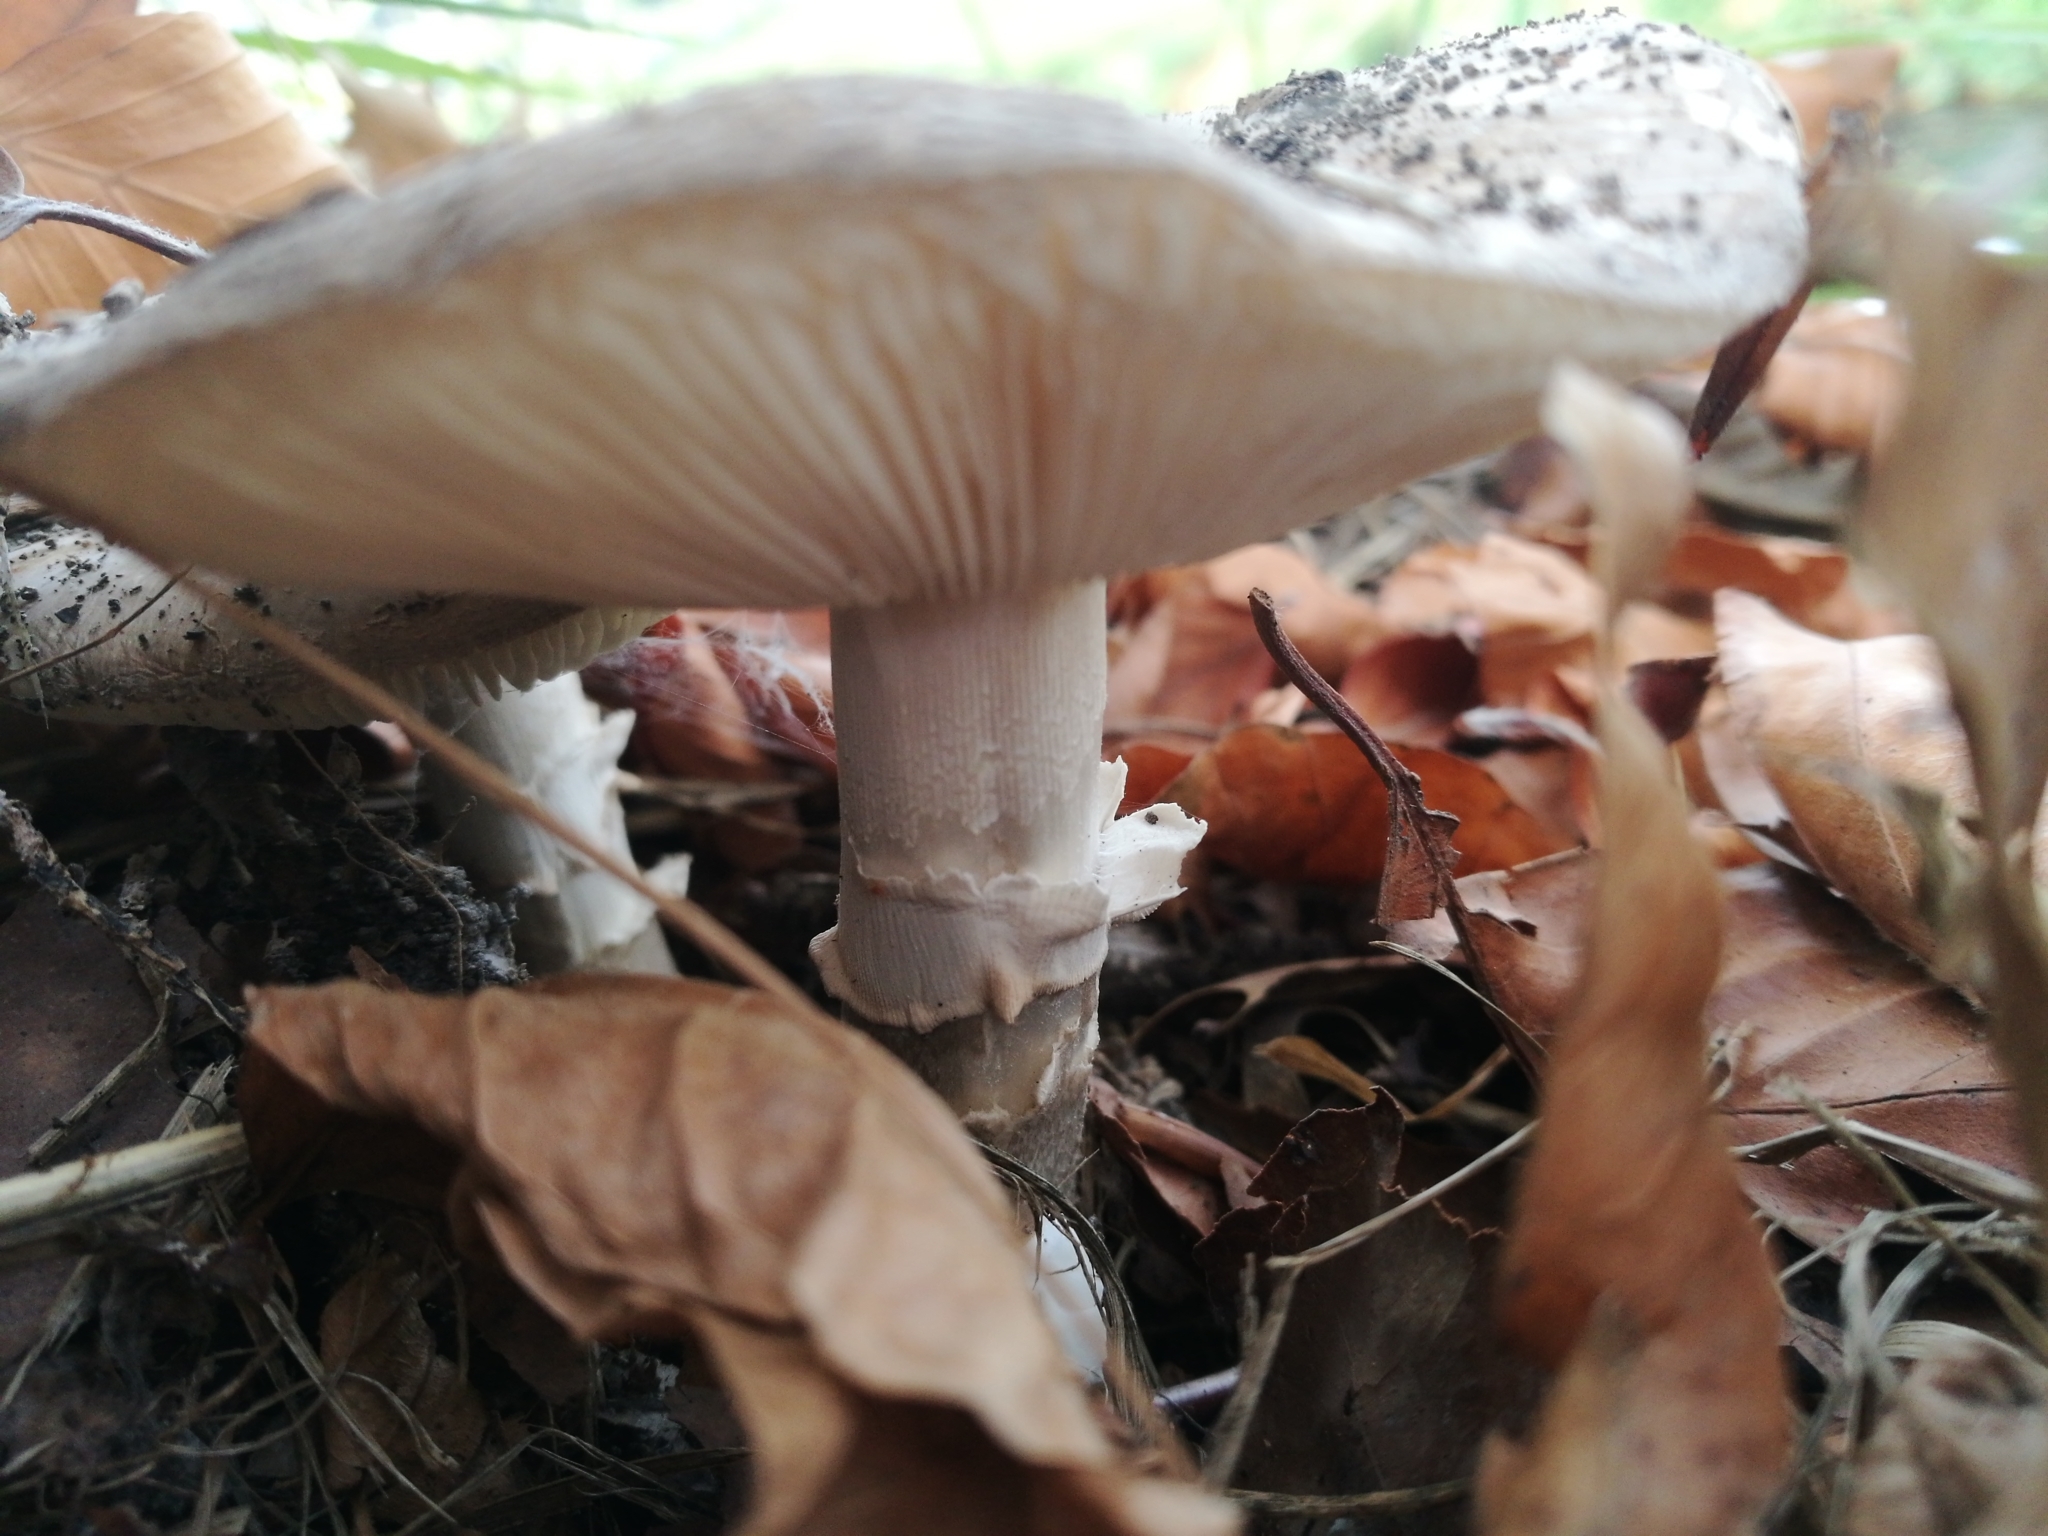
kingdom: Fungi
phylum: Basidiomycota
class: Agaricomycetes
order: Agaricales
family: Amanitaceae
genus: Amanita
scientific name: Amanita excelsa
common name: European false blusher
